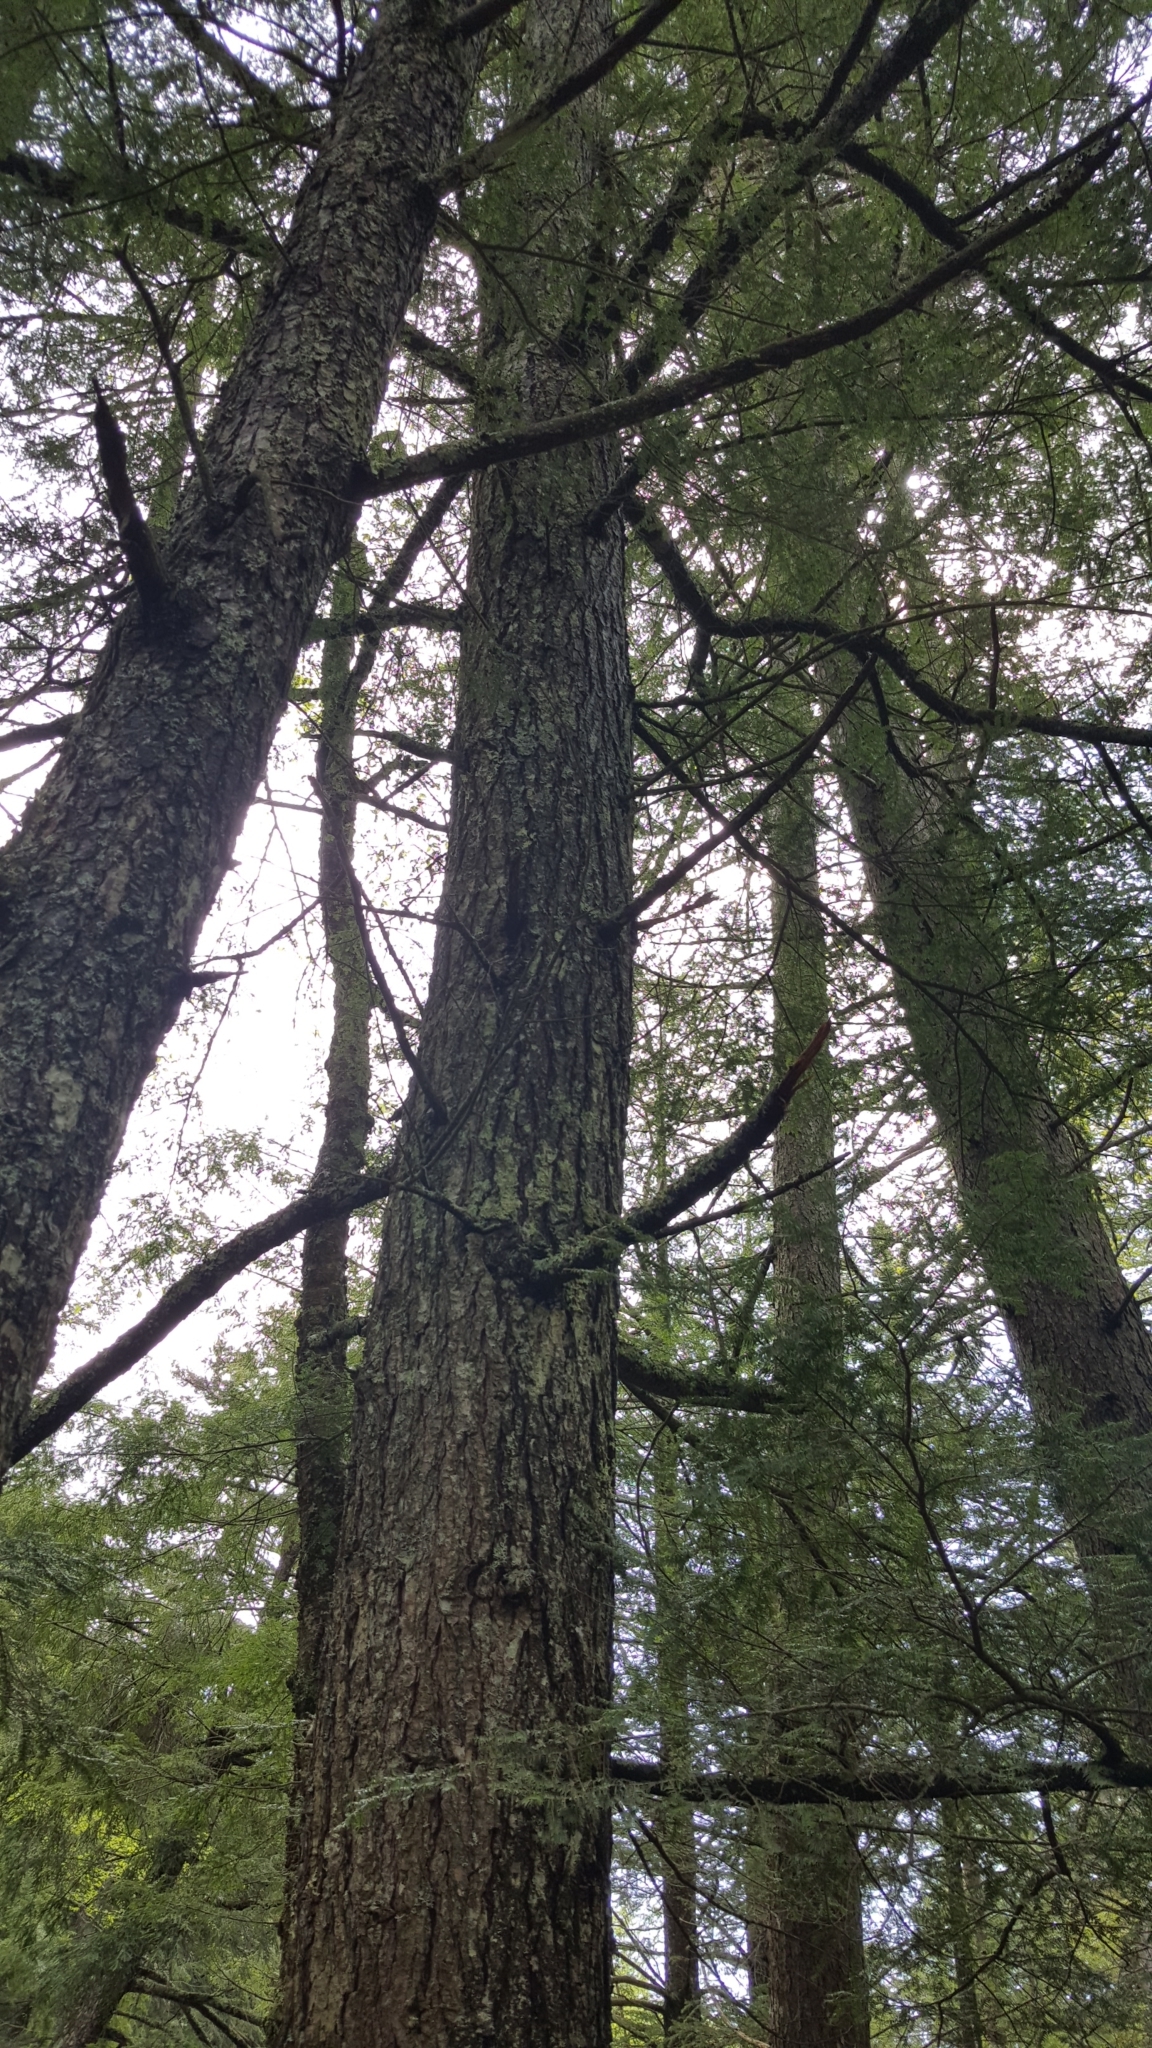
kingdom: Plantae
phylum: Tracheophyta
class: Pinopsida
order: Pinales
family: Pinaceae
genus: Tsuga
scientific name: Tsuga canadensis
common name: Eastern hemlock
